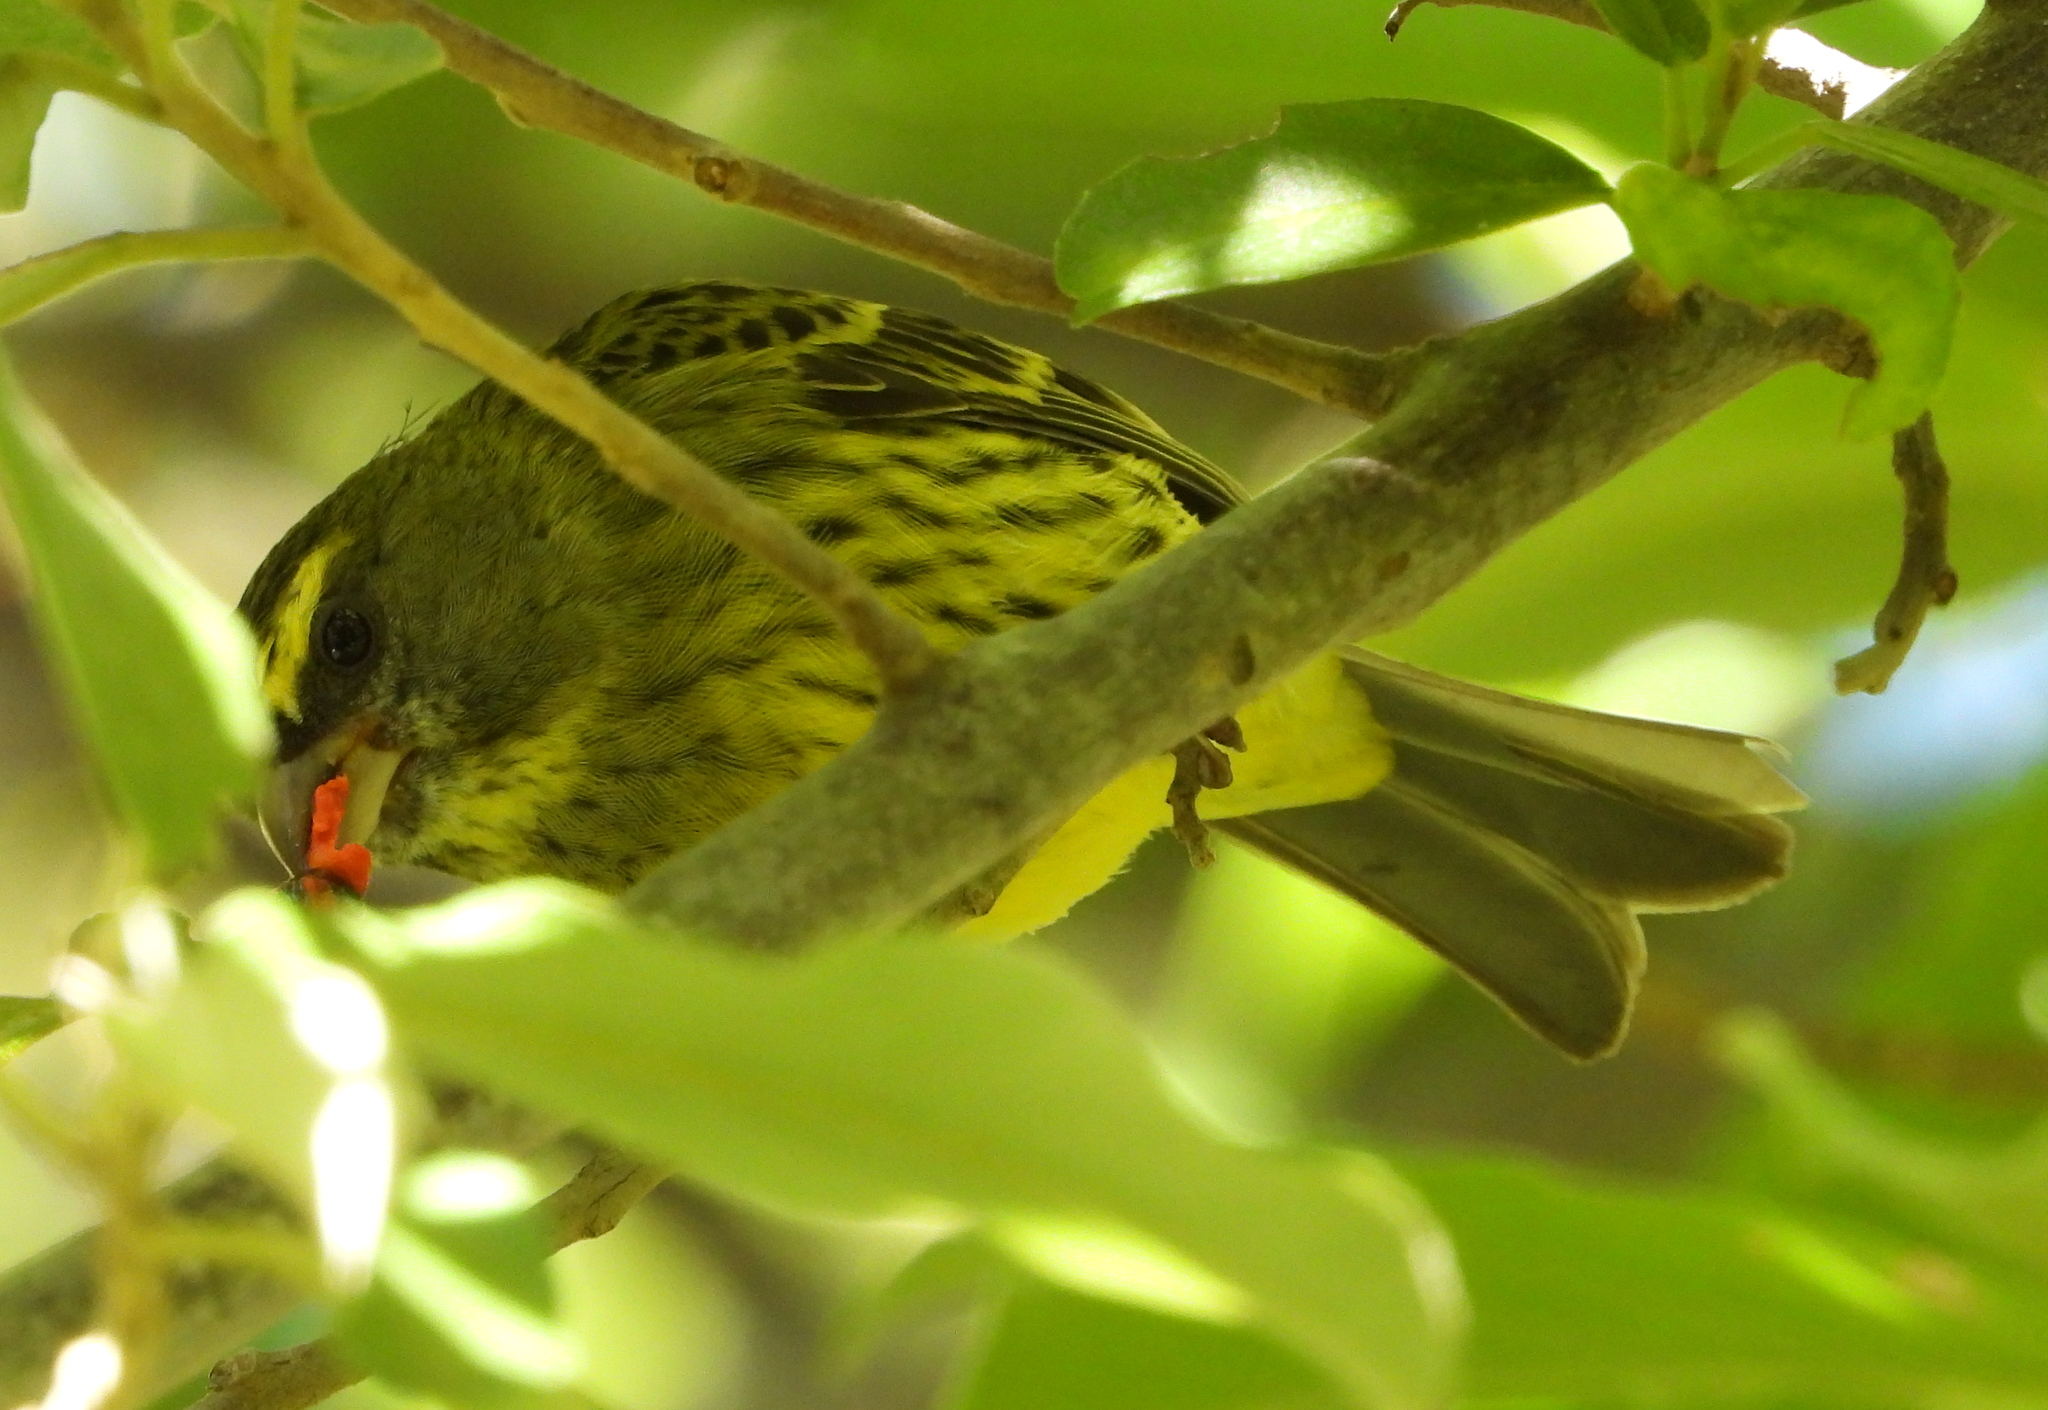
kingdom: Animalia
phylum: Chordata
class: Aves
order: Passeriformes
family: Fringillidae
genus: Crithagra
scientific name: Crithagra scotops
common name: Forest canary
